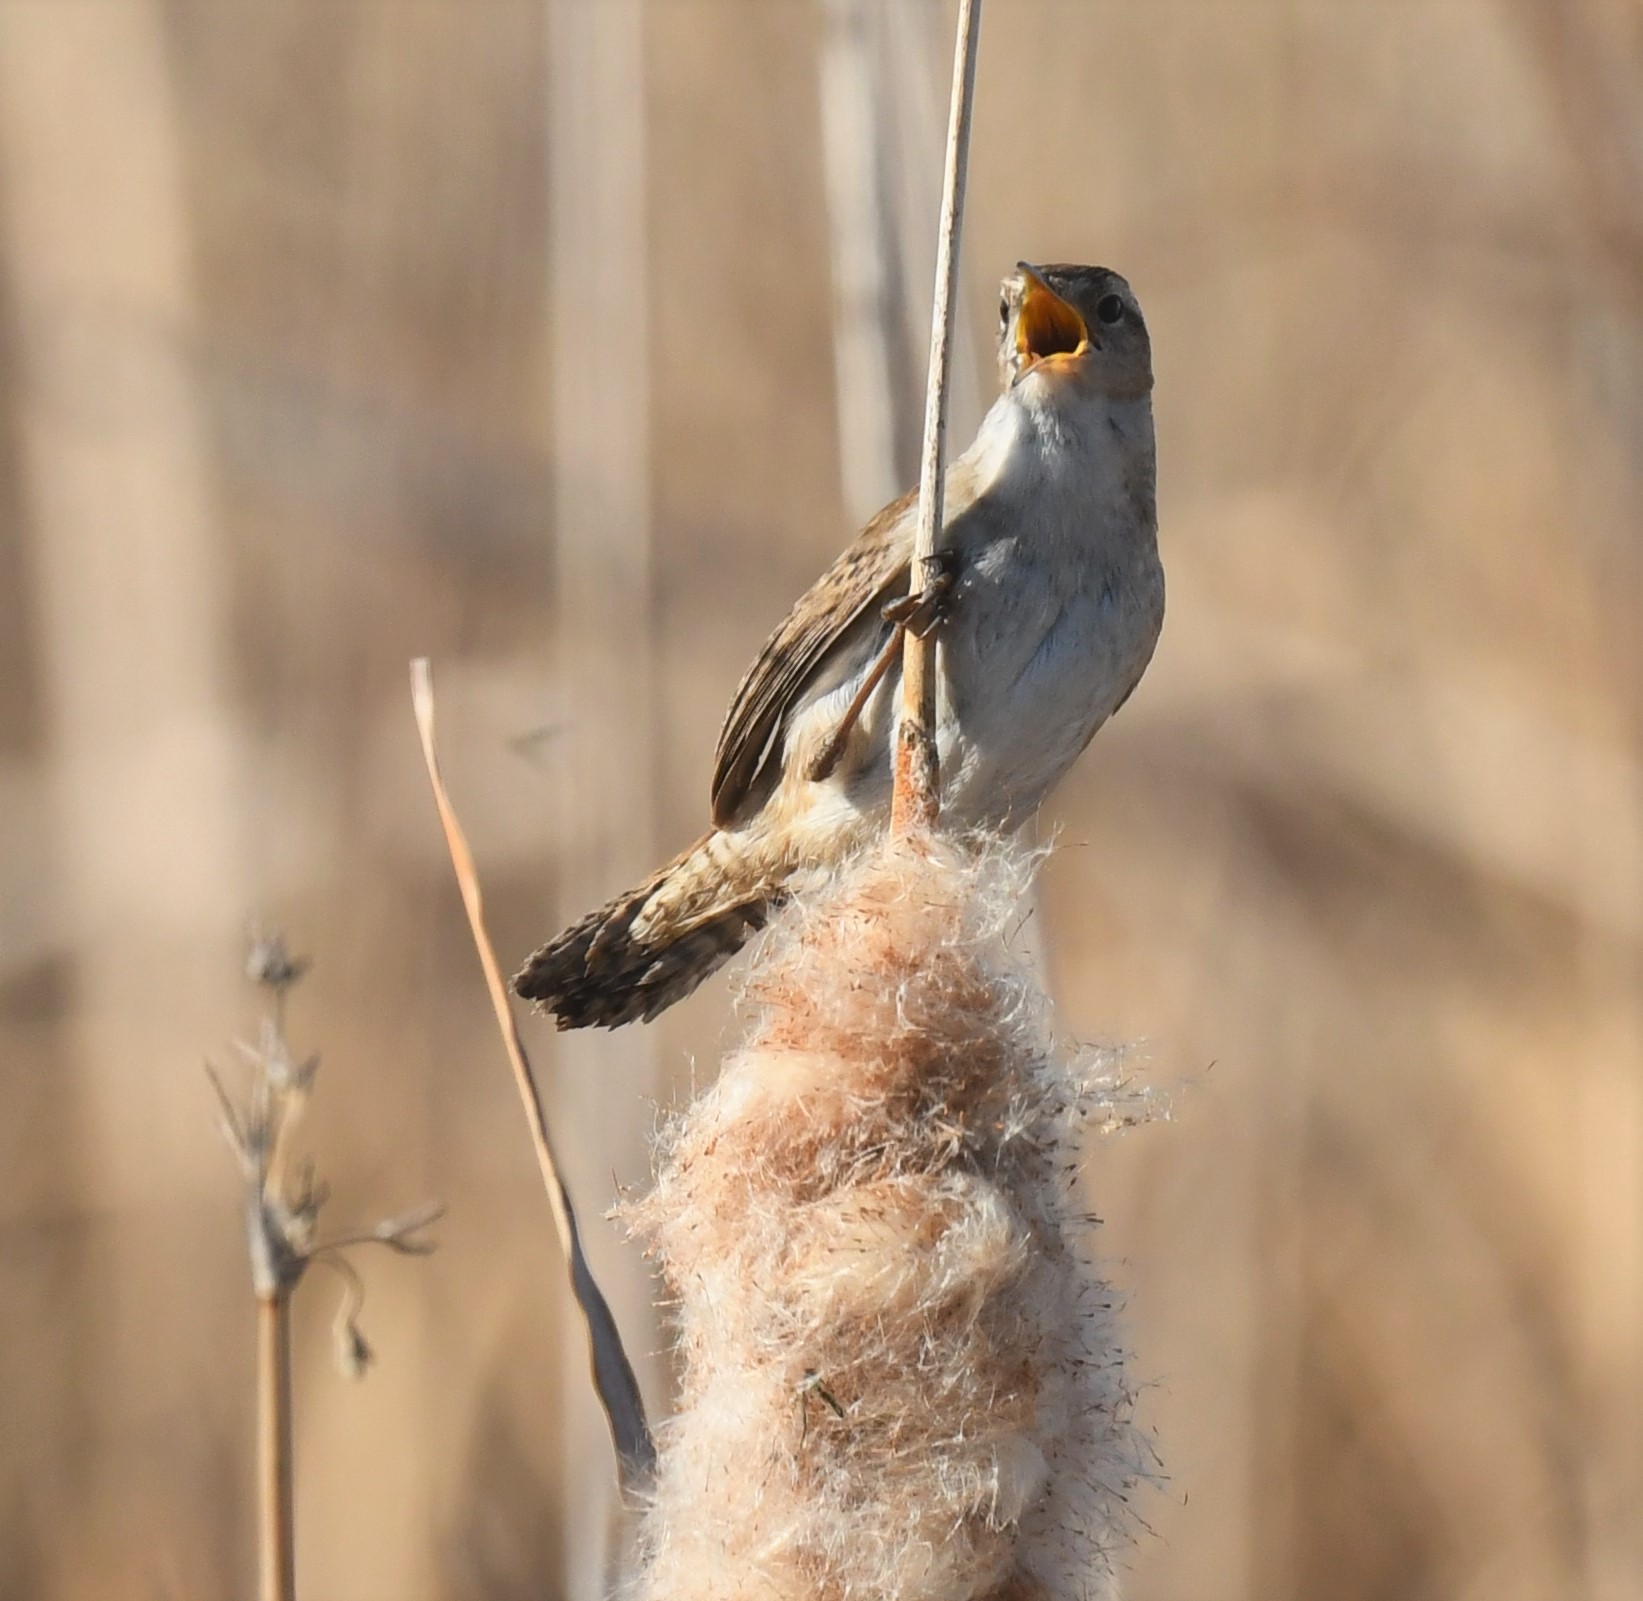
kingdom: Animalia
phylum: Chordata
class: Aves
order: Passeriformes
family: Troglodytidae
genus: Cistothorus
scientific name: Cistothorus palustris
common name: Marsh wren
